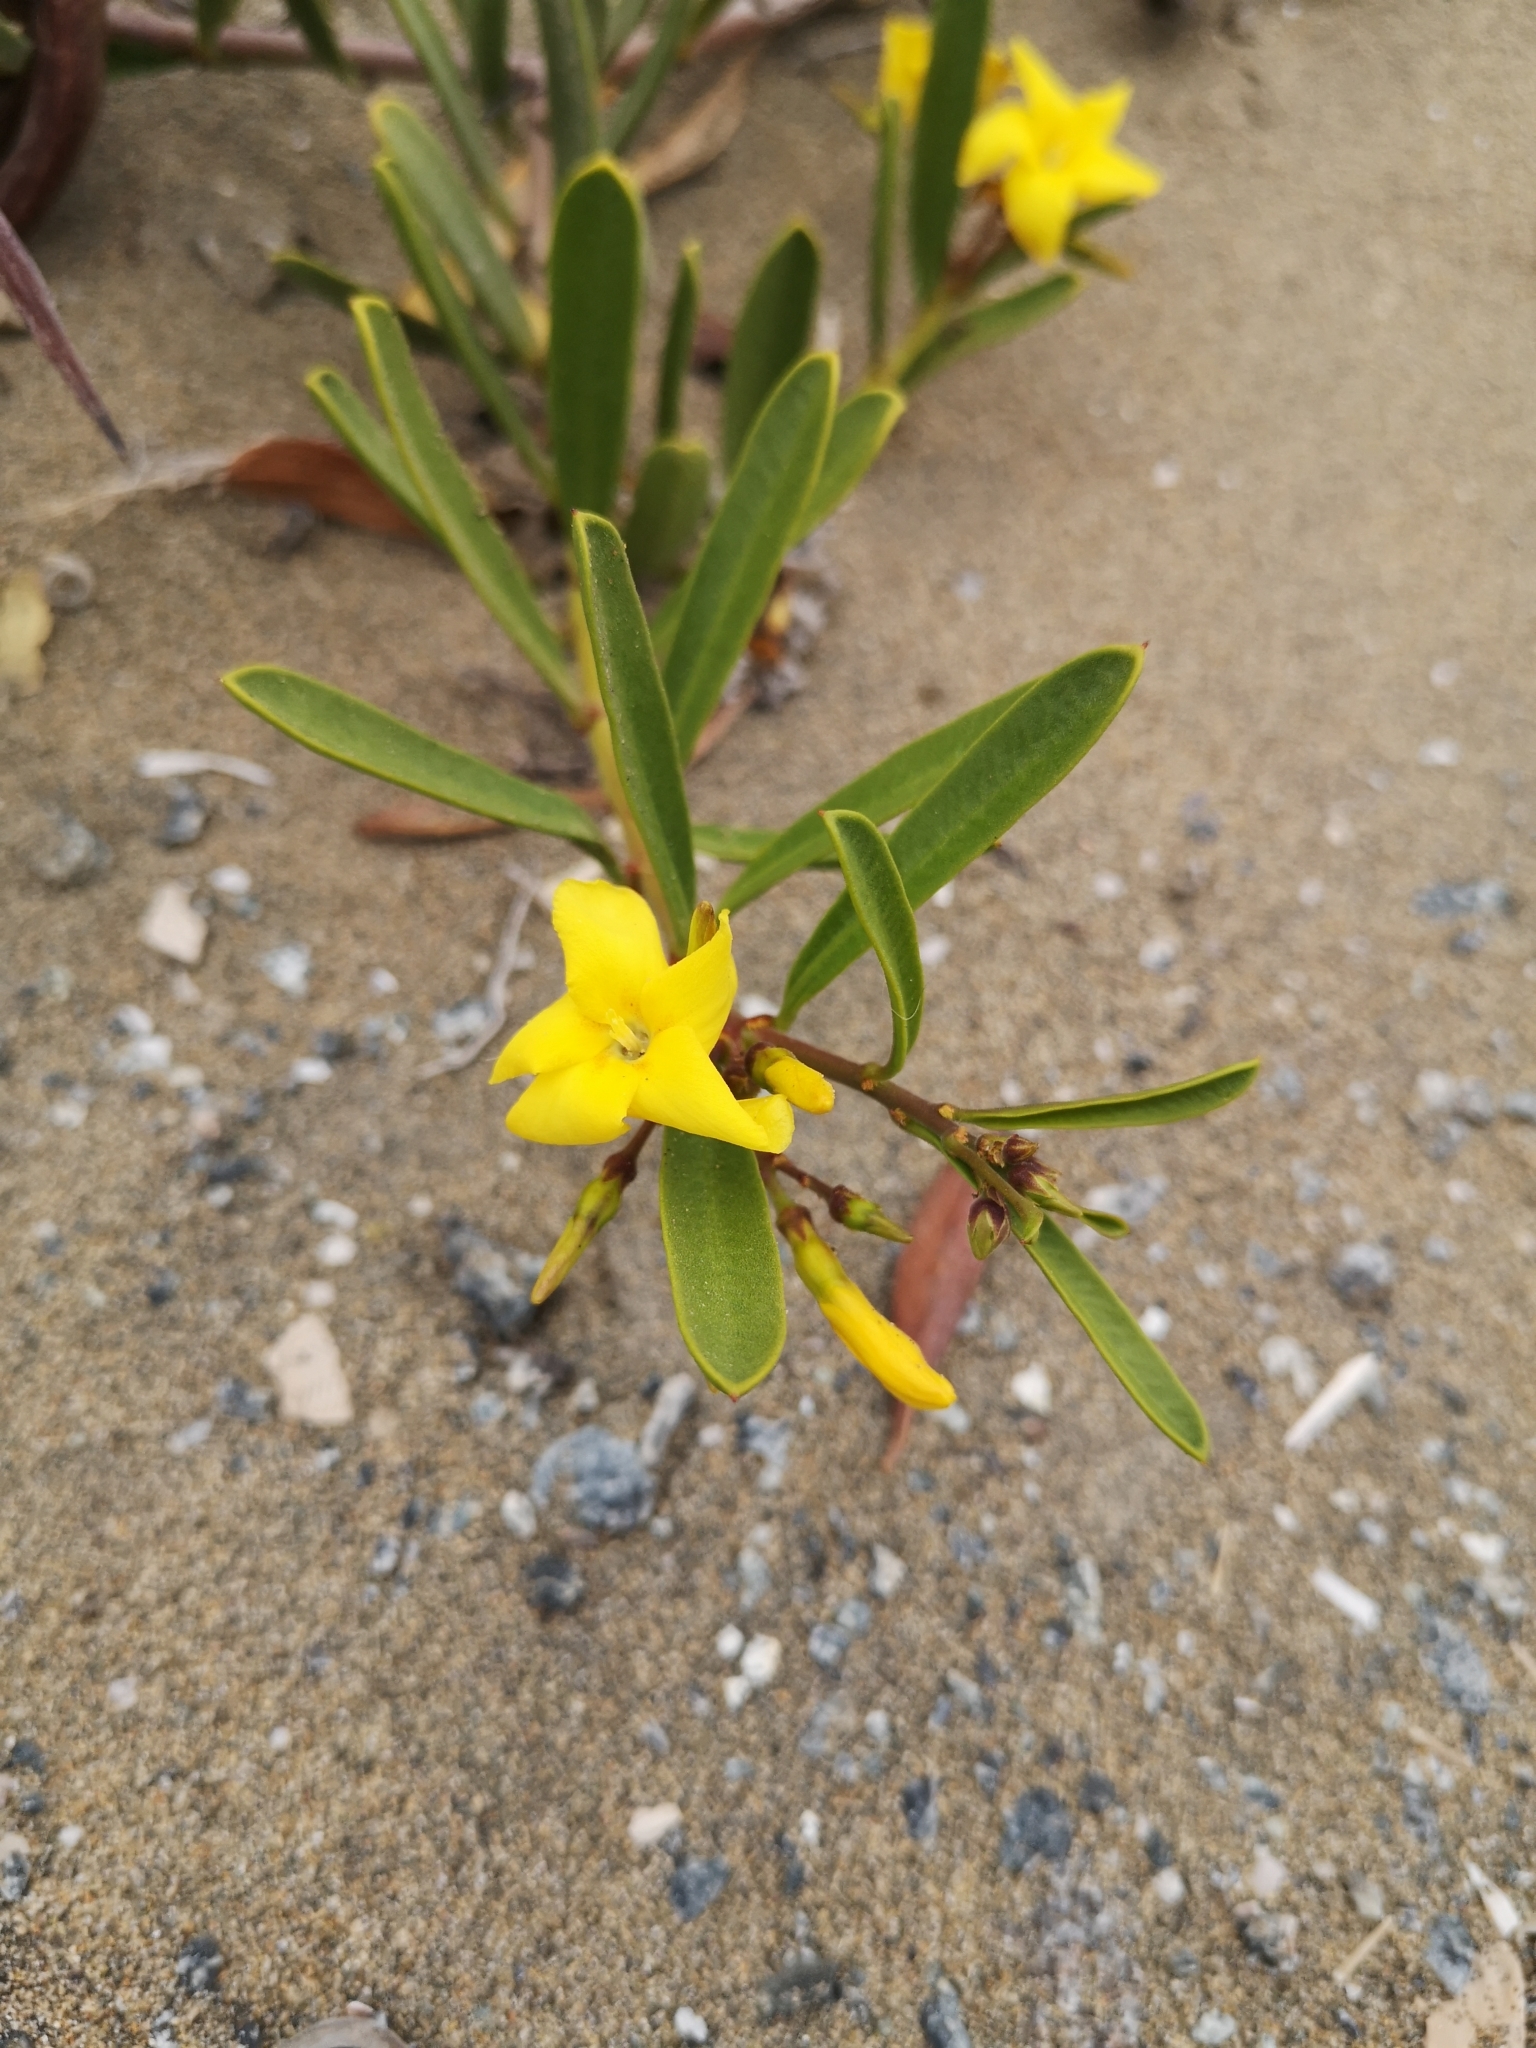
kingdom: Plantae
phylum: Tracheophyta
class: Magnoliopsida
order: Gentianales
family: Apocynaceae
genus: Skytanthus
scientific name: Skytanthus acutus
